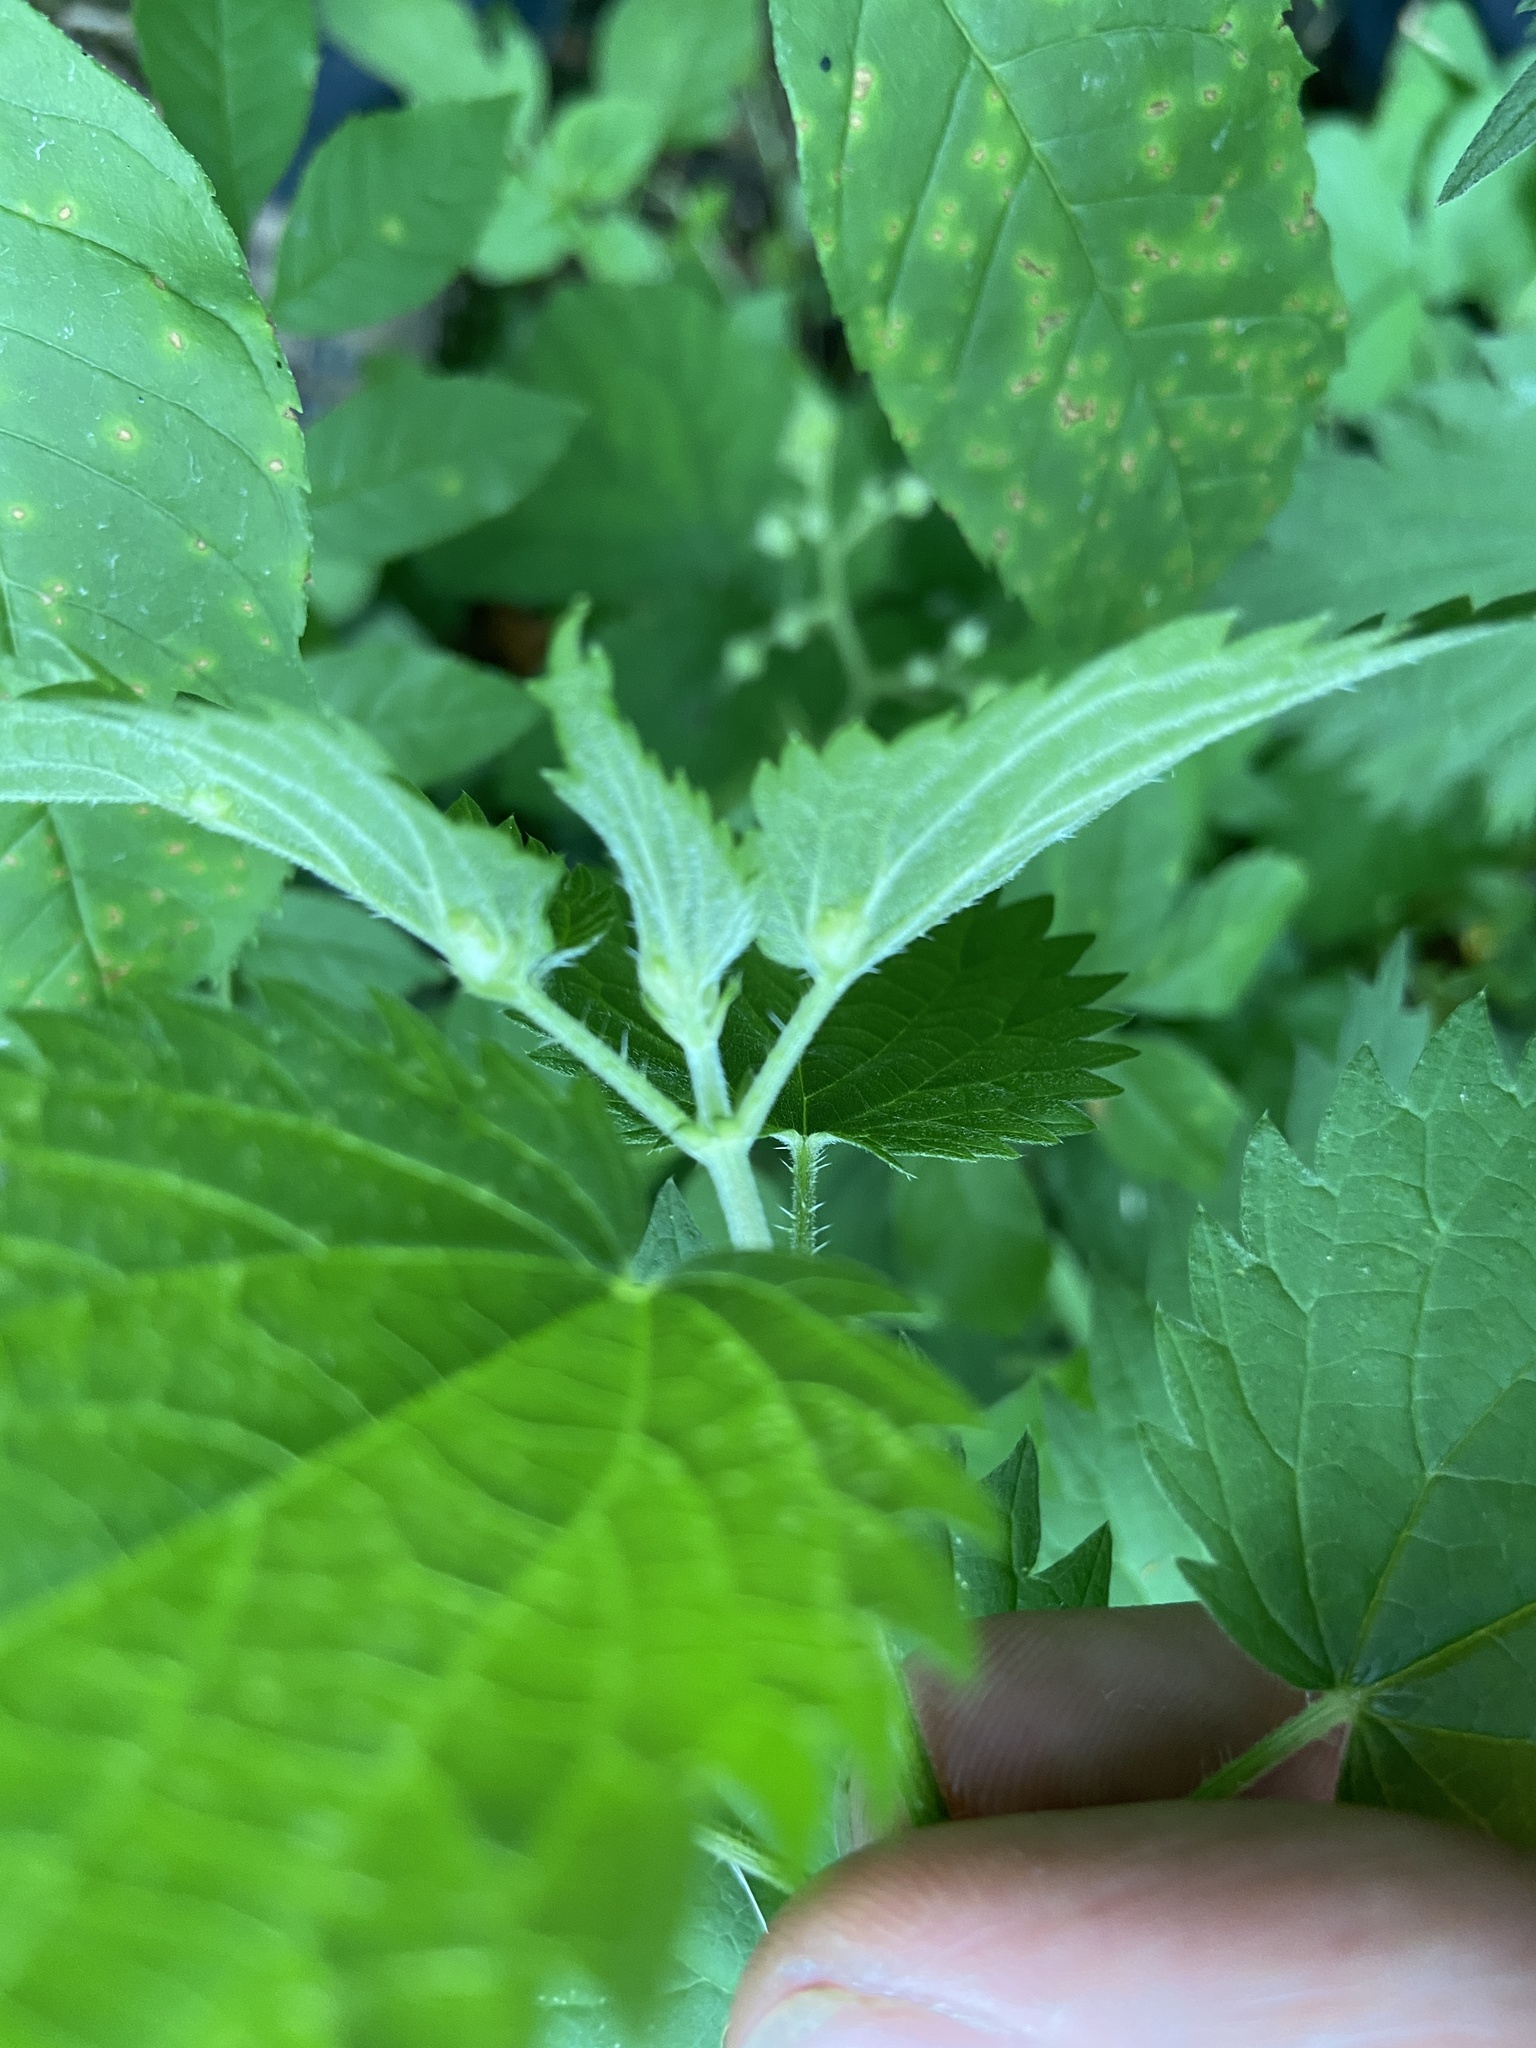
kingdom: Animalia
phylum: Arthropoda
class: Insecta
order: Diptera
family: Cecidomyiidae
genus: Dasineura
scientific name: Dasineura urticae
